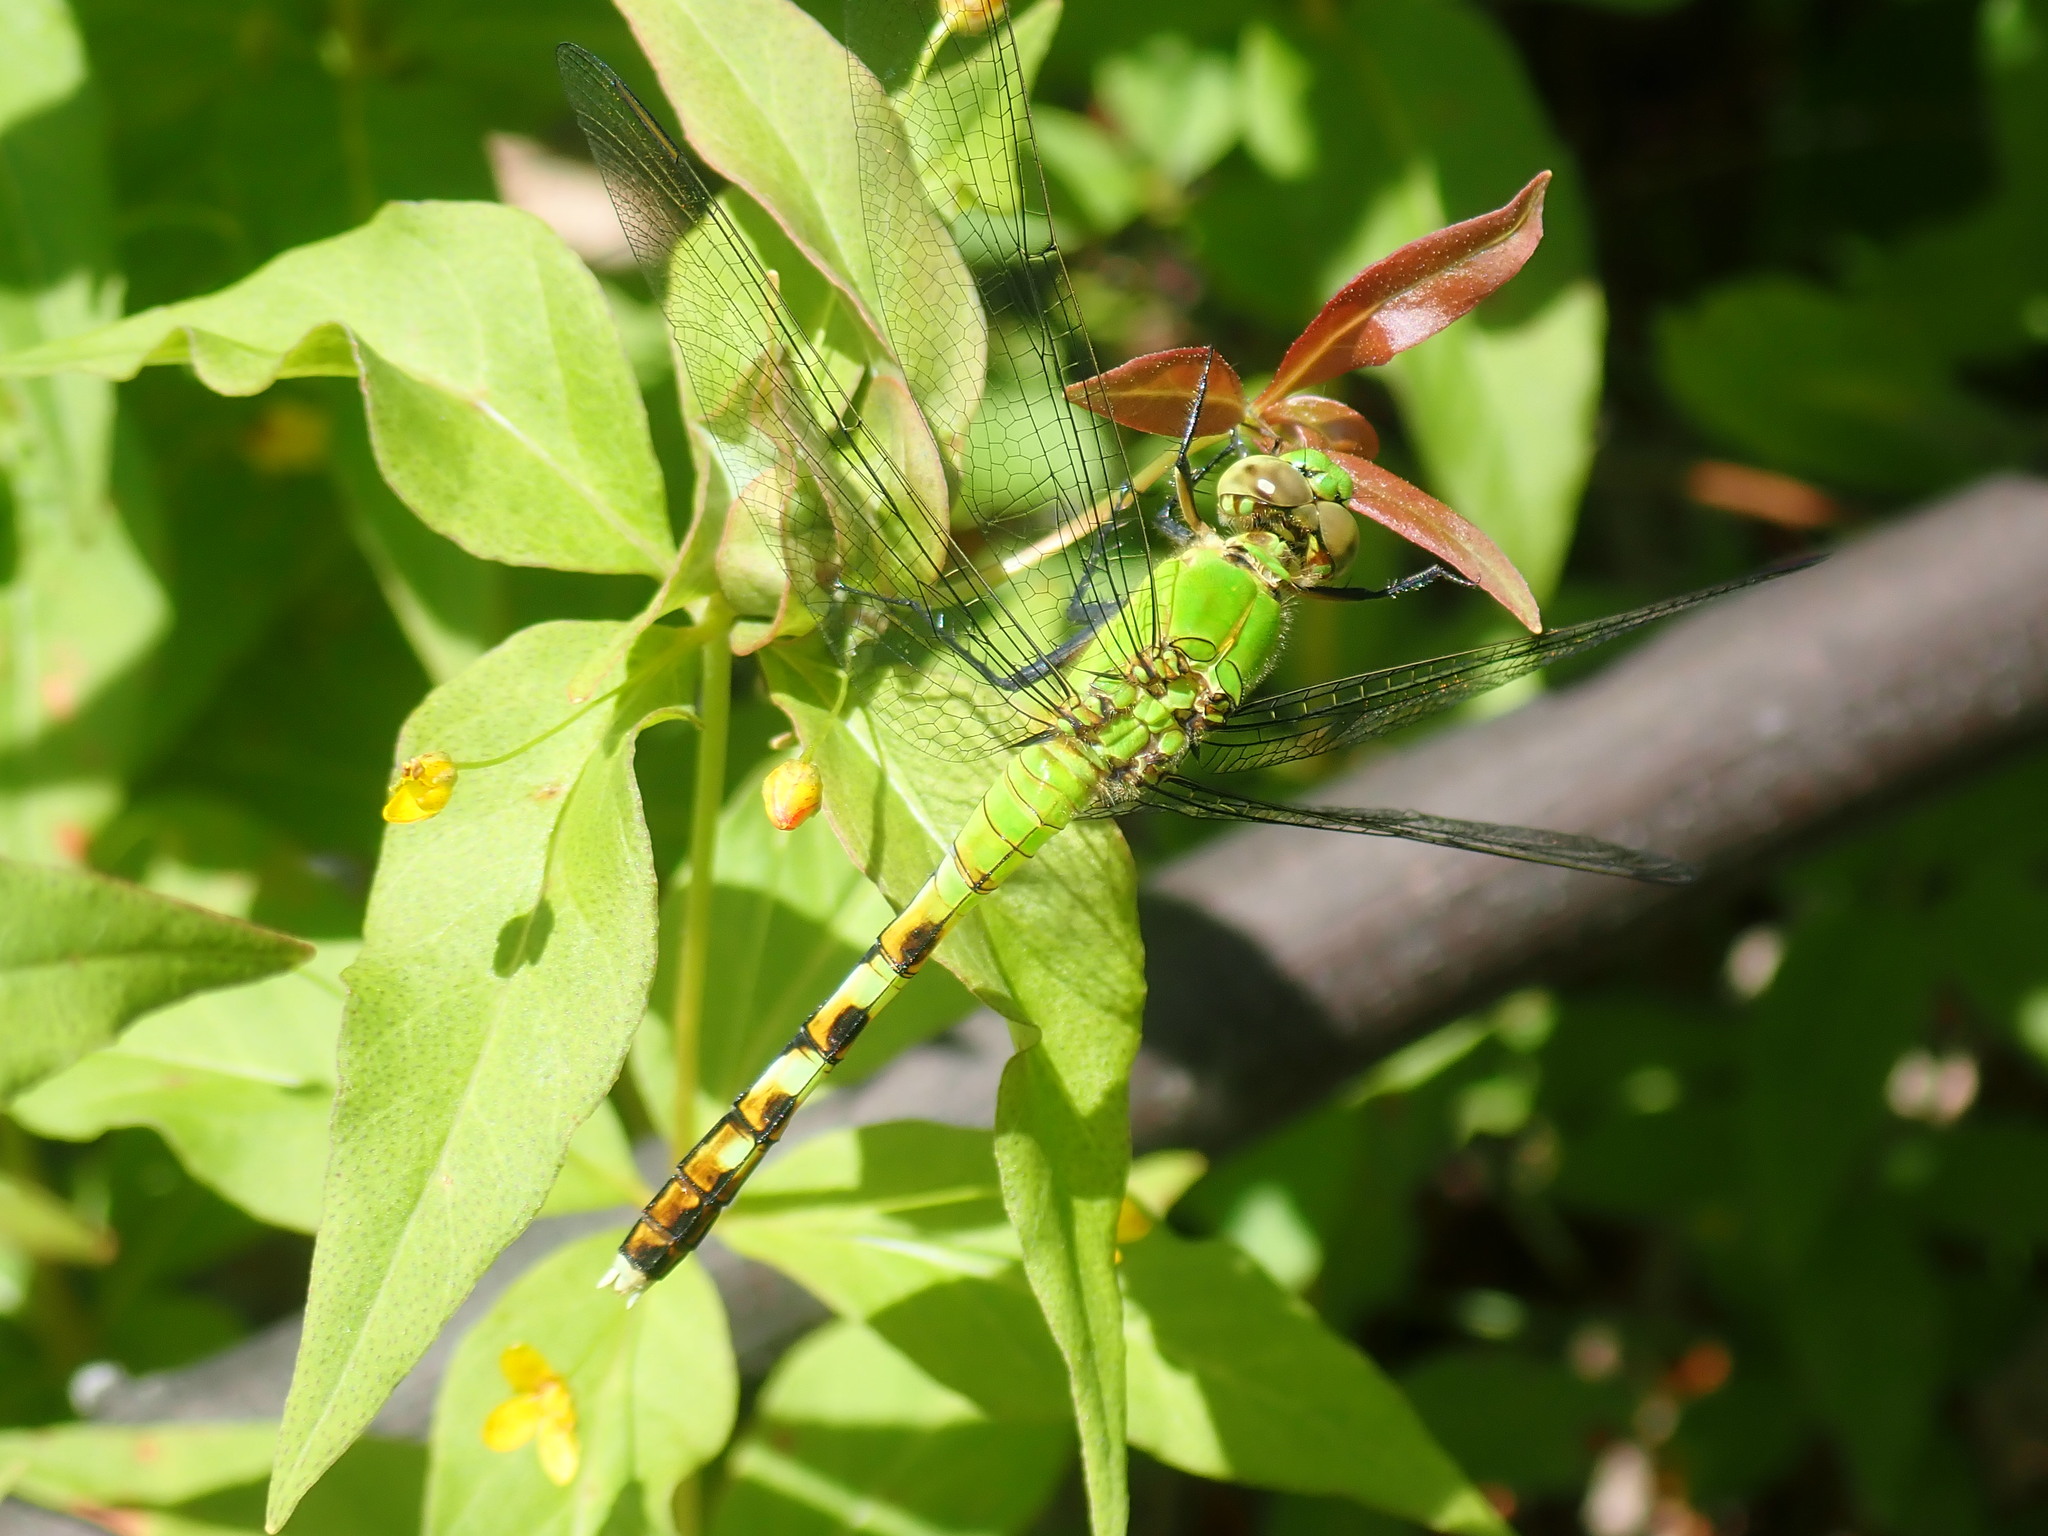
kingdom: Animalia
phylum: Arthropoda
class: Insecta
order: Odonata
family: Libellulidae
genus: Erythemis
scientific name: Erythemis simplicicollis
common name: Eastern pondhawk
